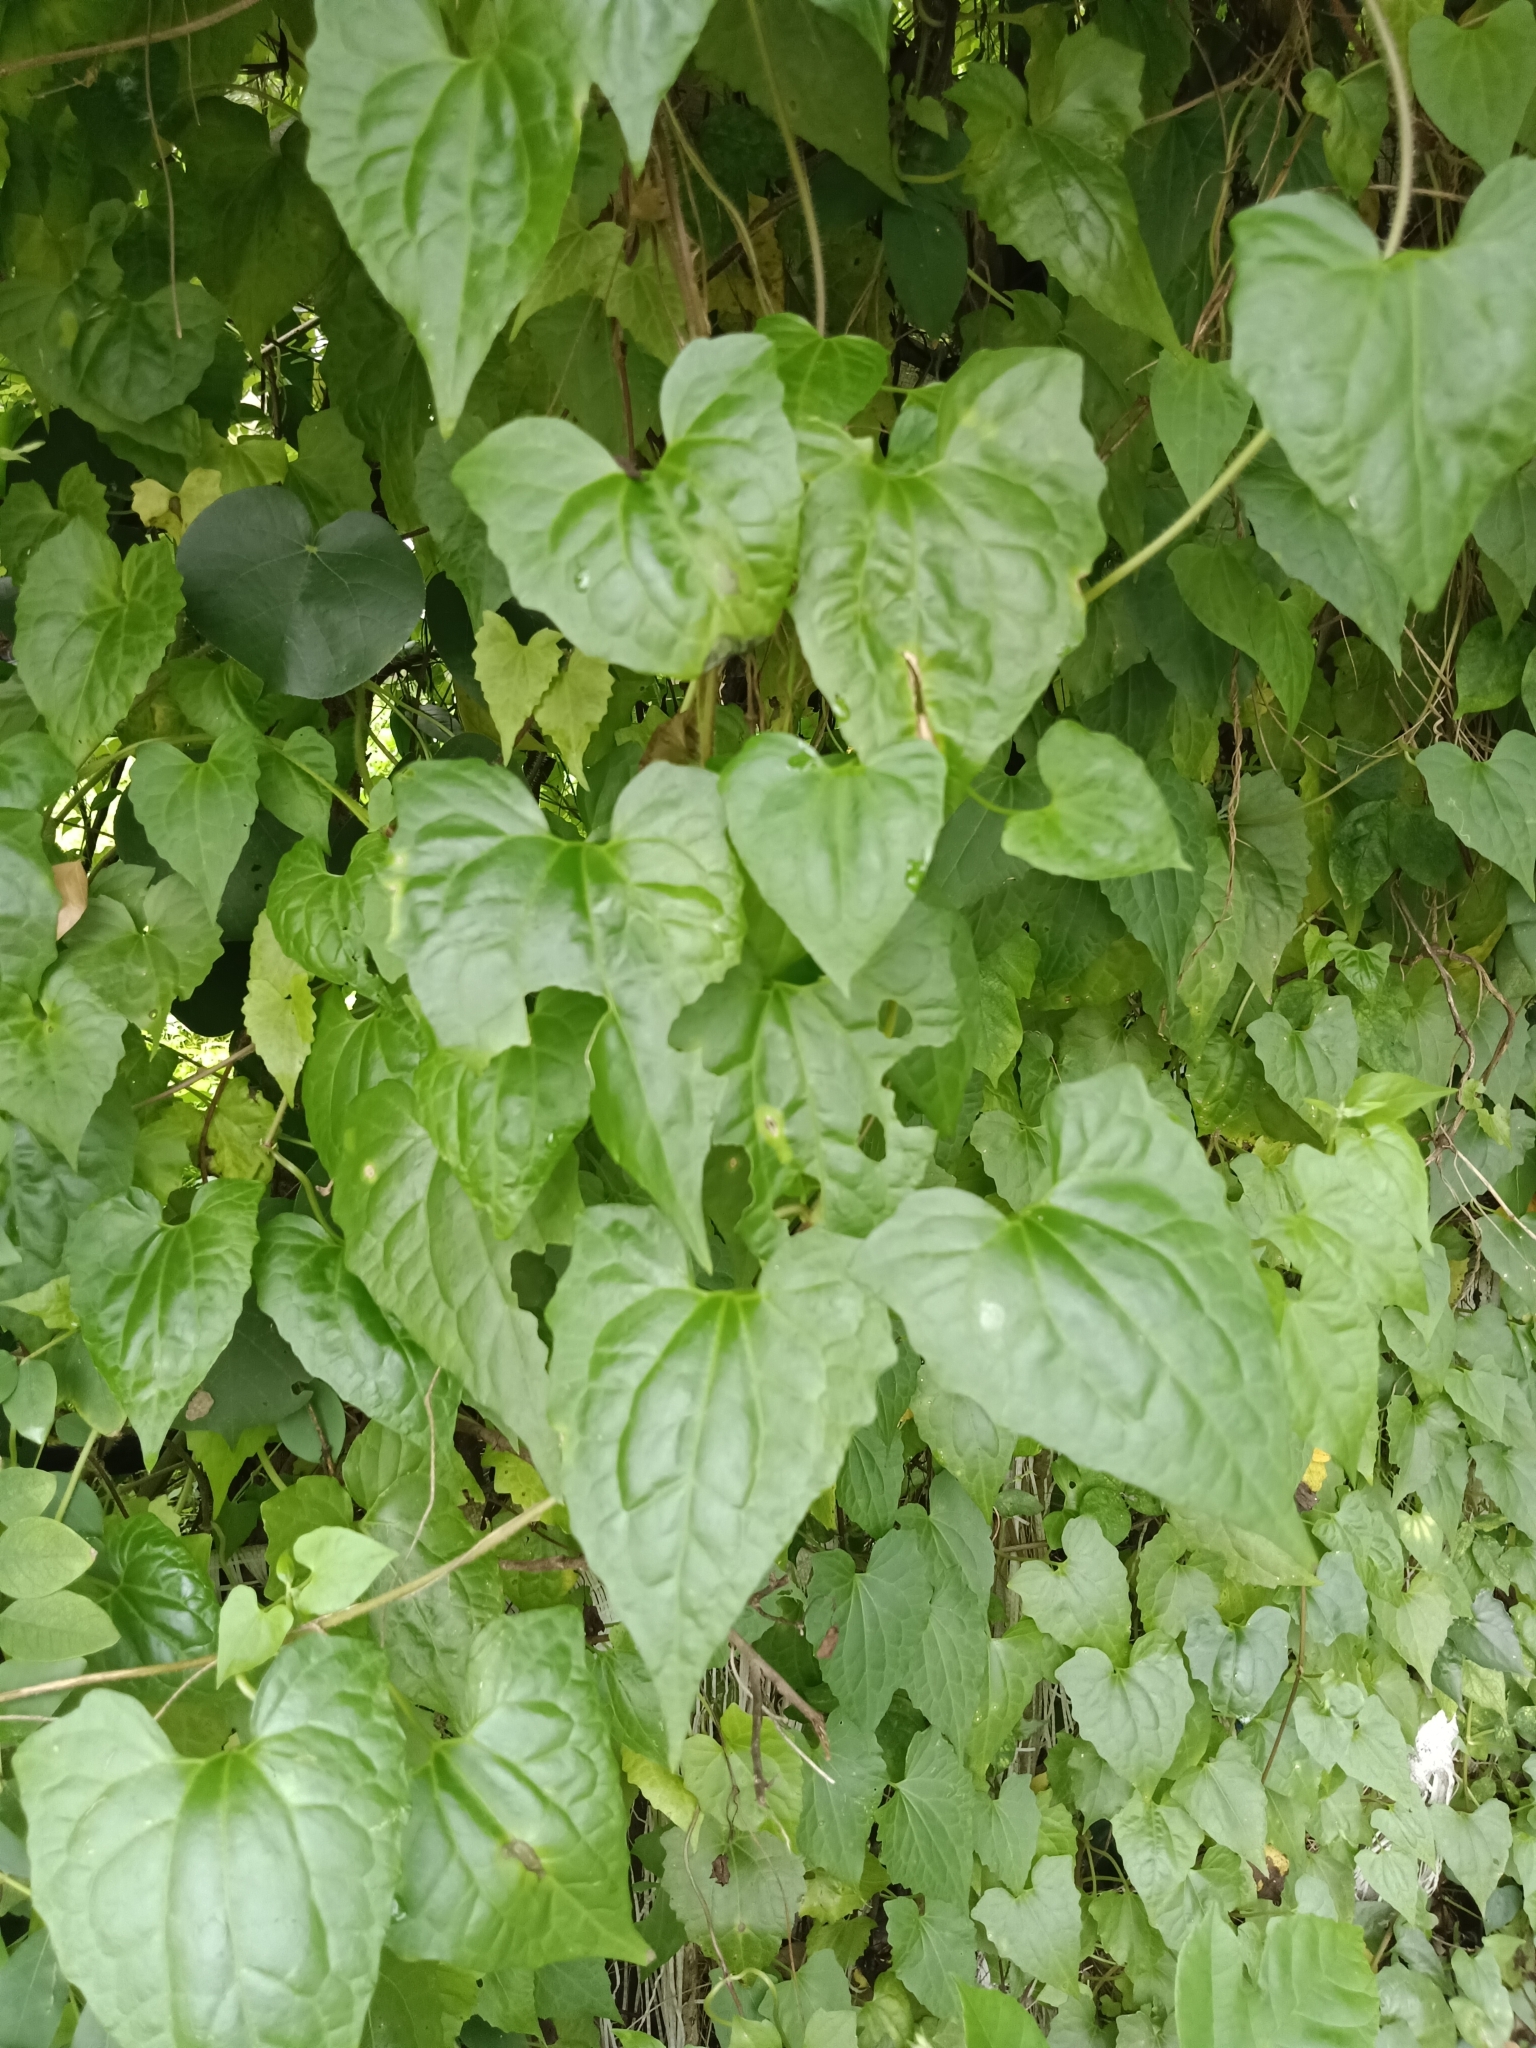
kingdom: Plantae
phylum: Tracheophyta
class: Magnoliopsida
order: Asterales
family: Asteraceae
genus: Mikania
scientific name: Mikania micrantha
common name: Mile-a-minute
